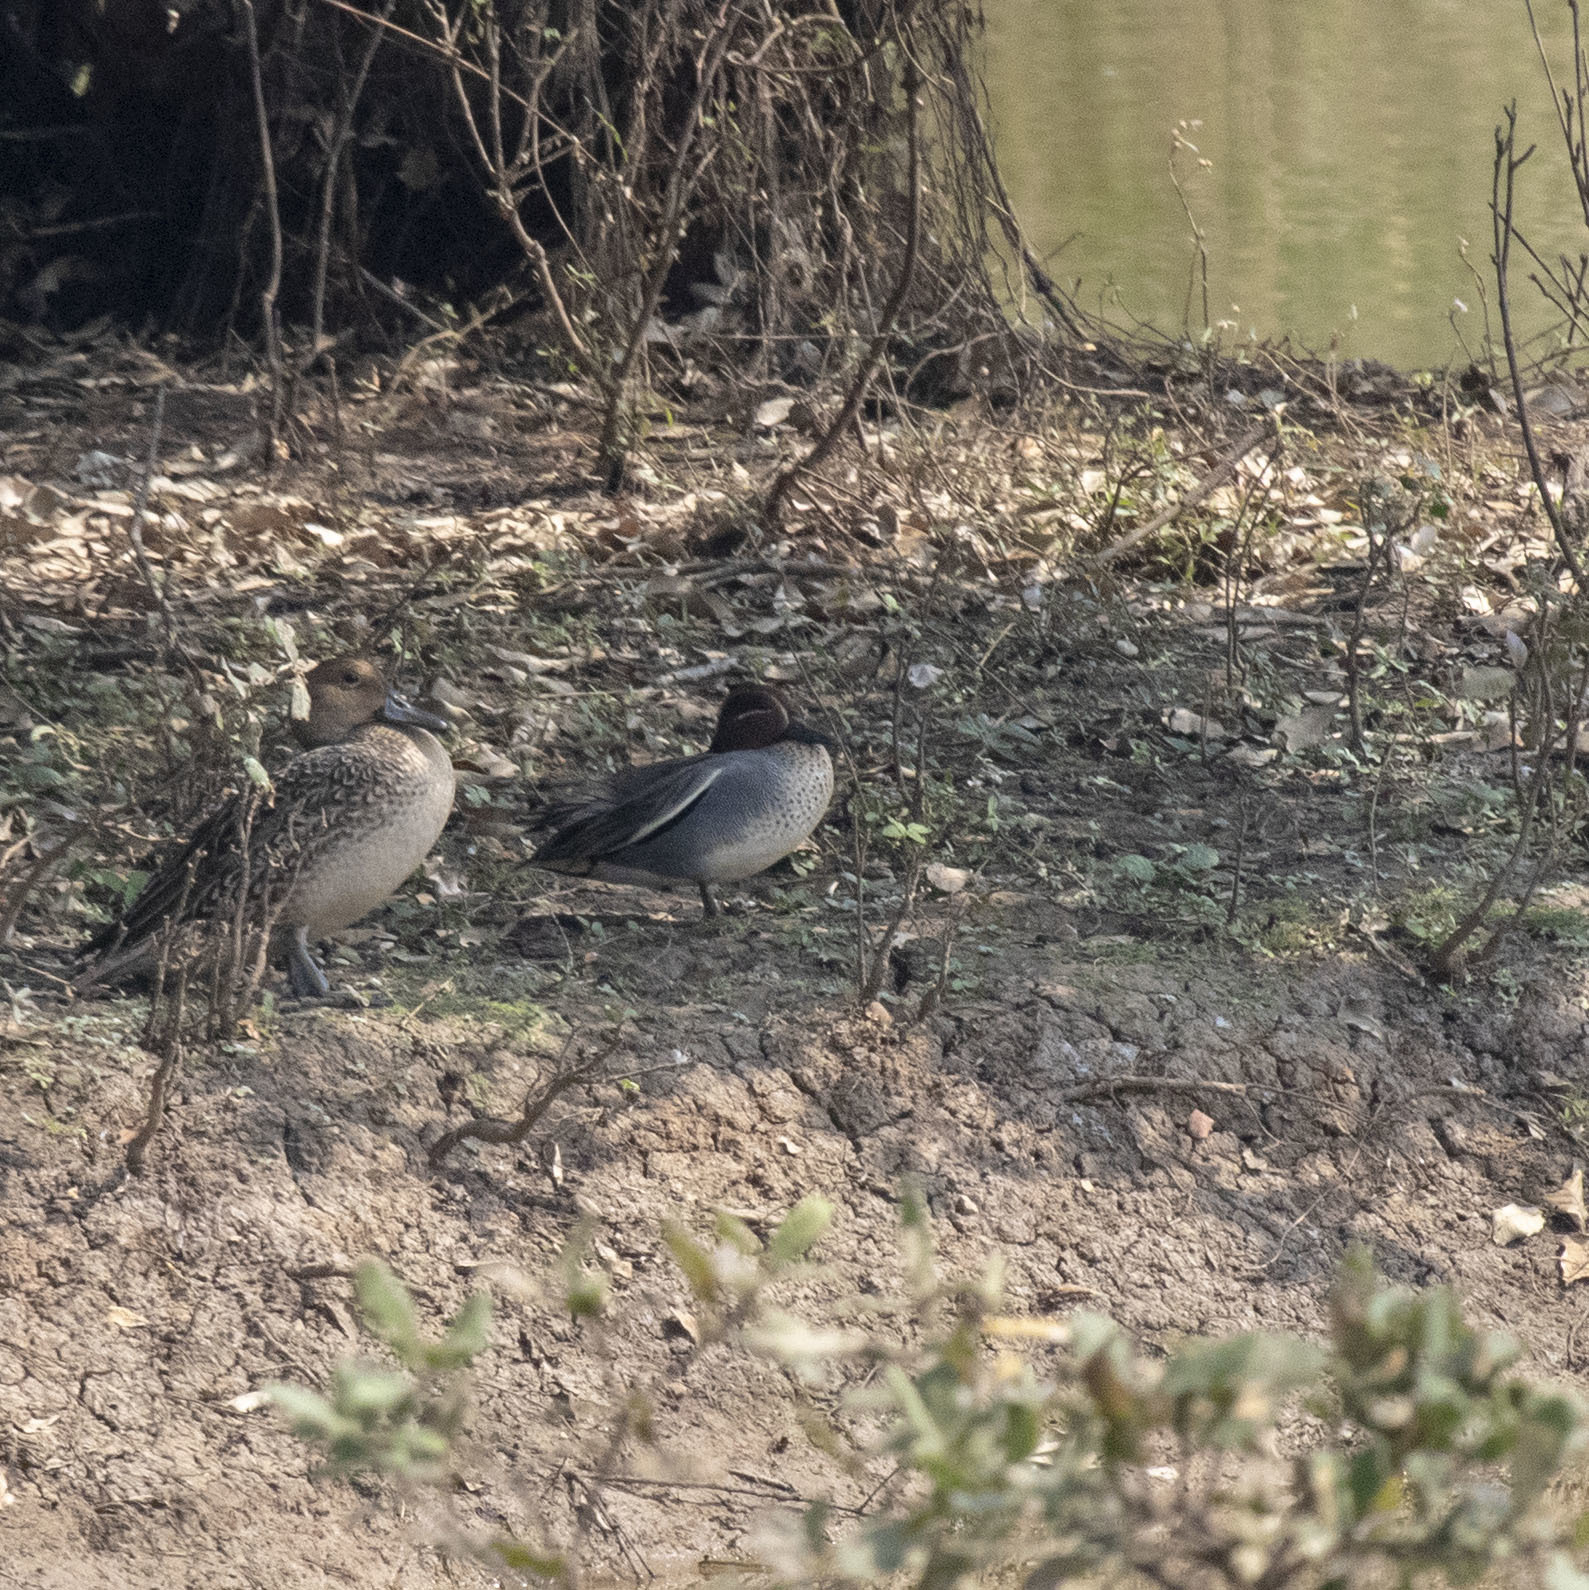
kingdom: Animalia
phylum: Chordata
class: Aves
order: Anseriformes
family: Anatidae
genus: Anas
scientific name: Anas crecca
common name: Eurasian teal
